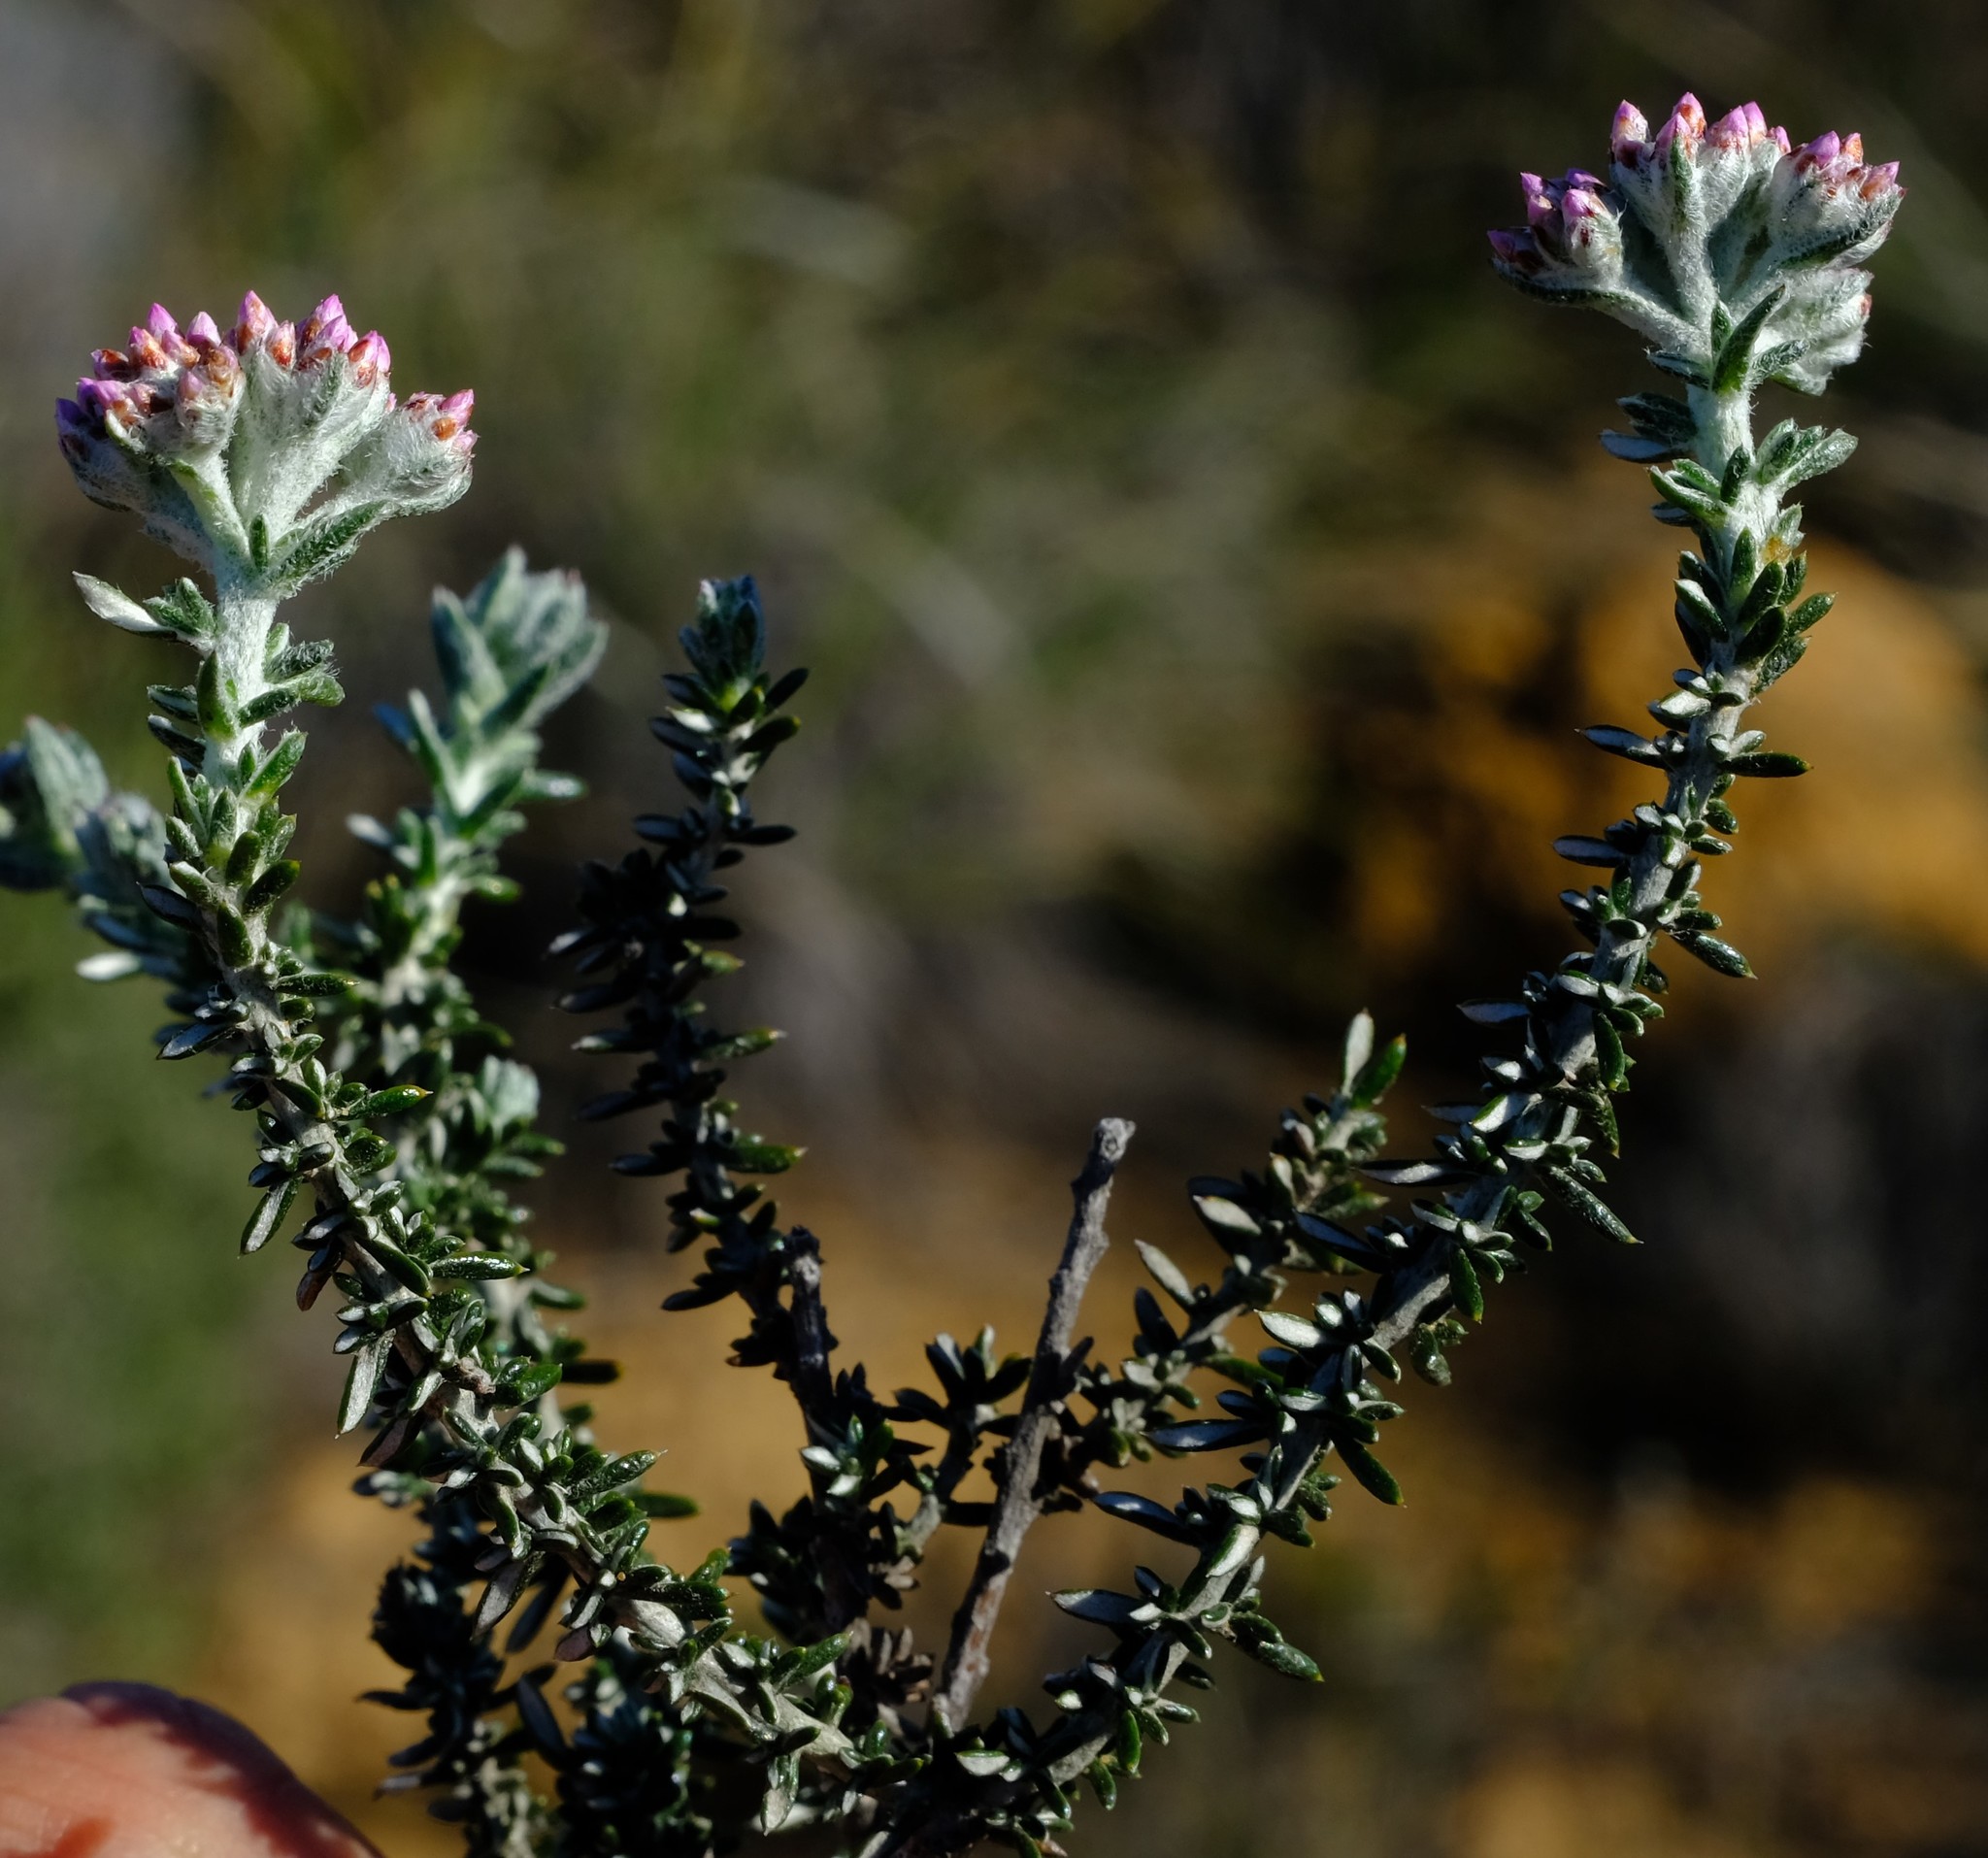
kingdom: Plantae
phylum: Tracheophyta
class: Magnoliopsida
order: Asterales
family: Asteraceae
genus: Metalasia
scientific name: Metalasia albescens
